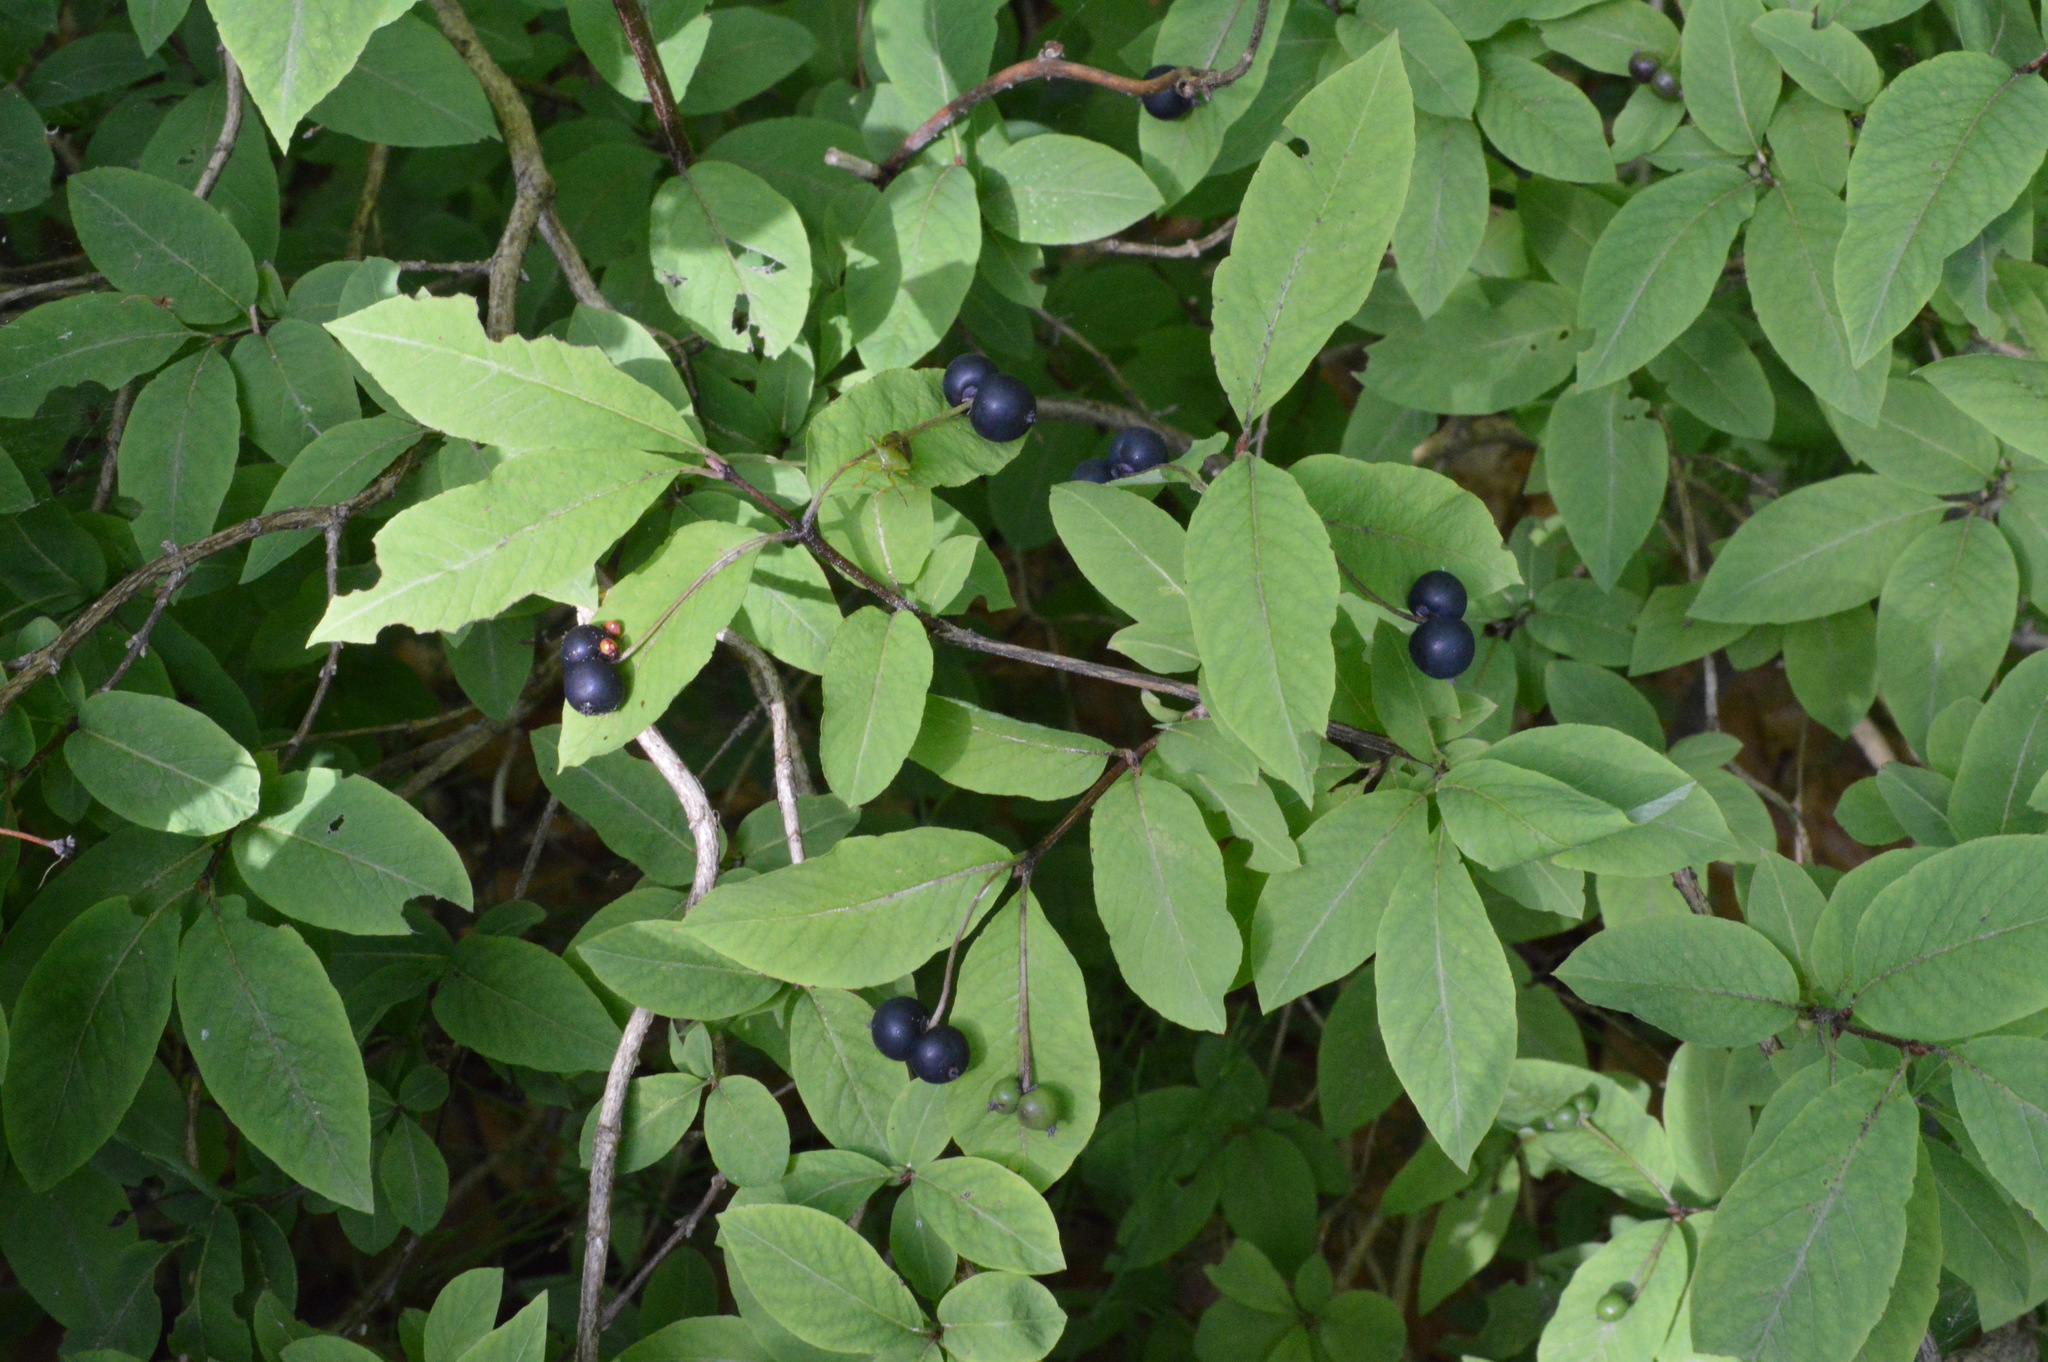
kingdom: Plantae
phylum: Tracheophyta
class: Magnoliopsida
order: Dipsacales
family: Caprifoliaceae
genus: Lonicera
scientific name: Lonicera nigra
